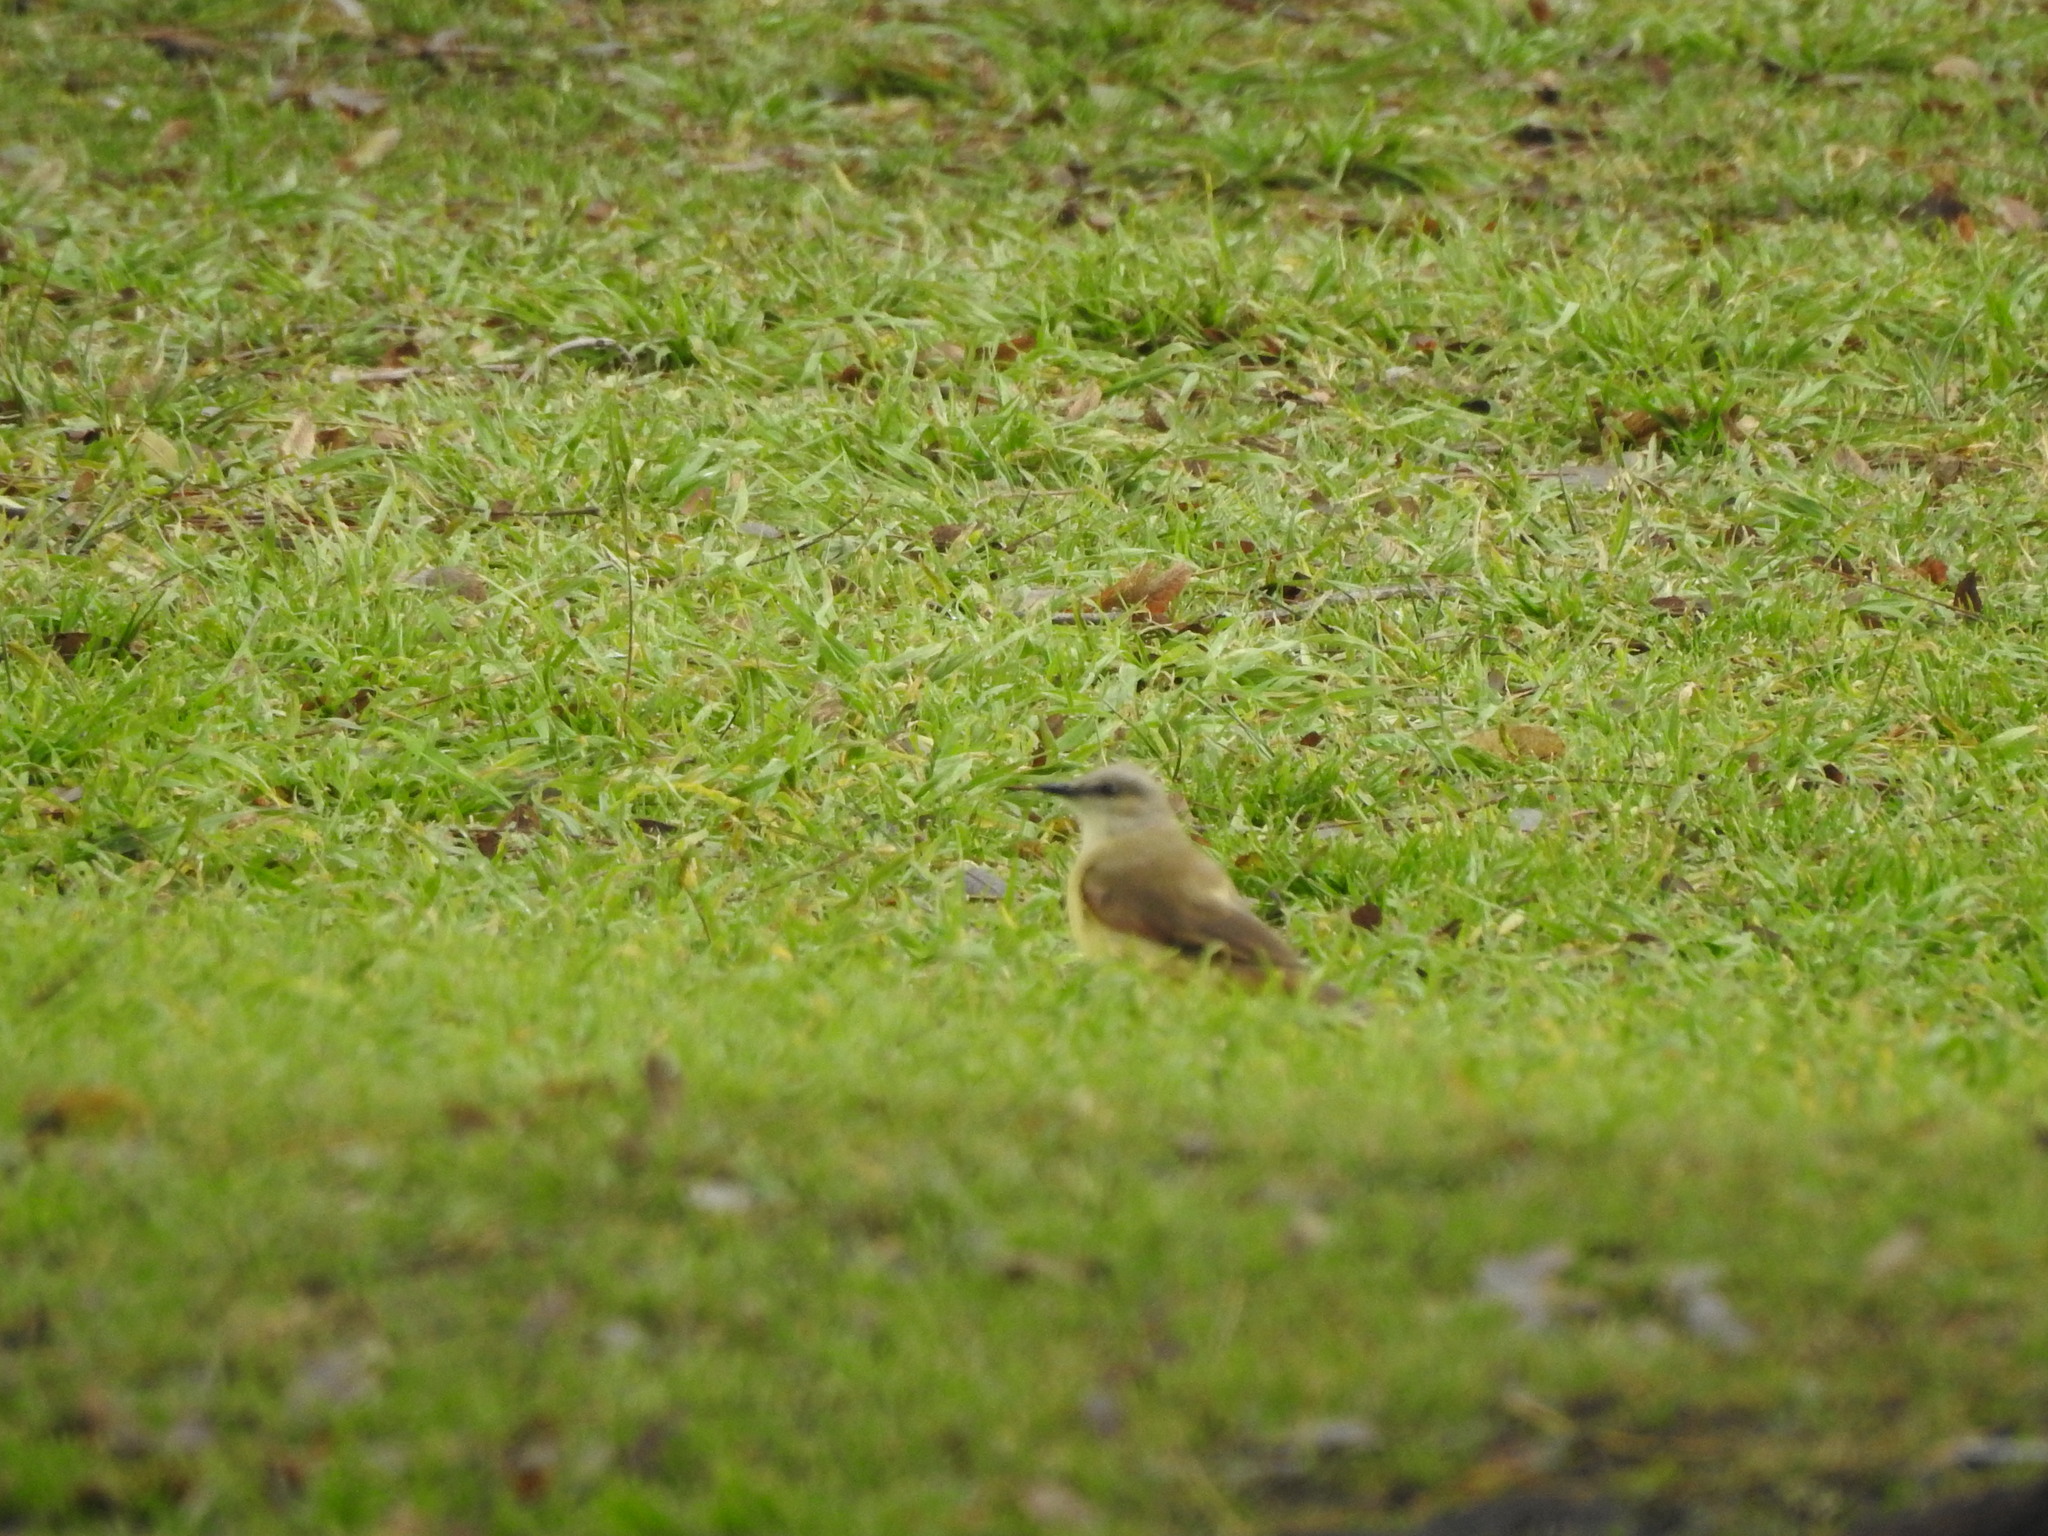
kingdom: Animalia
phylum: Chordata
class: Aves
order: Passeriformes
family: Tyrannidae
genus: Machetornis
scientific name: Machetornis rixosa
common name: Cattle tyrant
